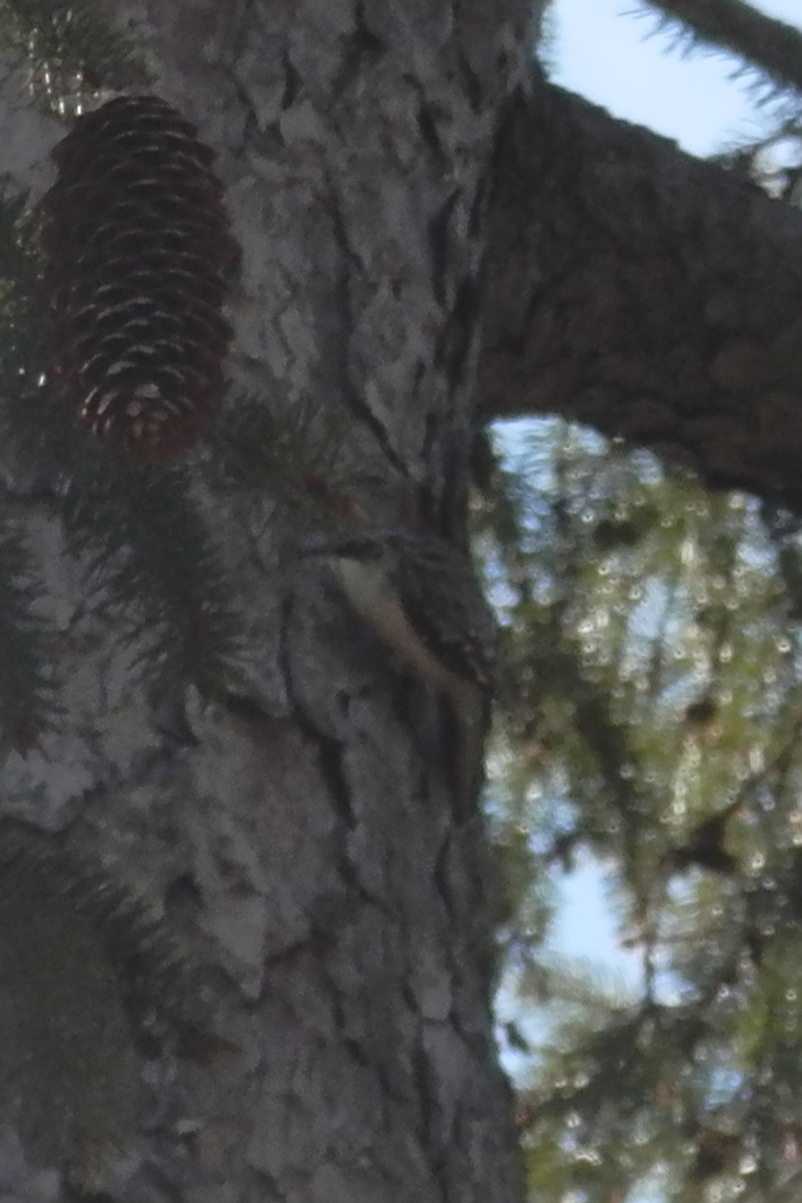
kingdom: Animalia
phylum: Chordata
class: Aves
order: Passeriformes
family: Certhiidae
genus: Certhia
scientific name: Certhia americana
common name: Brown creeper
